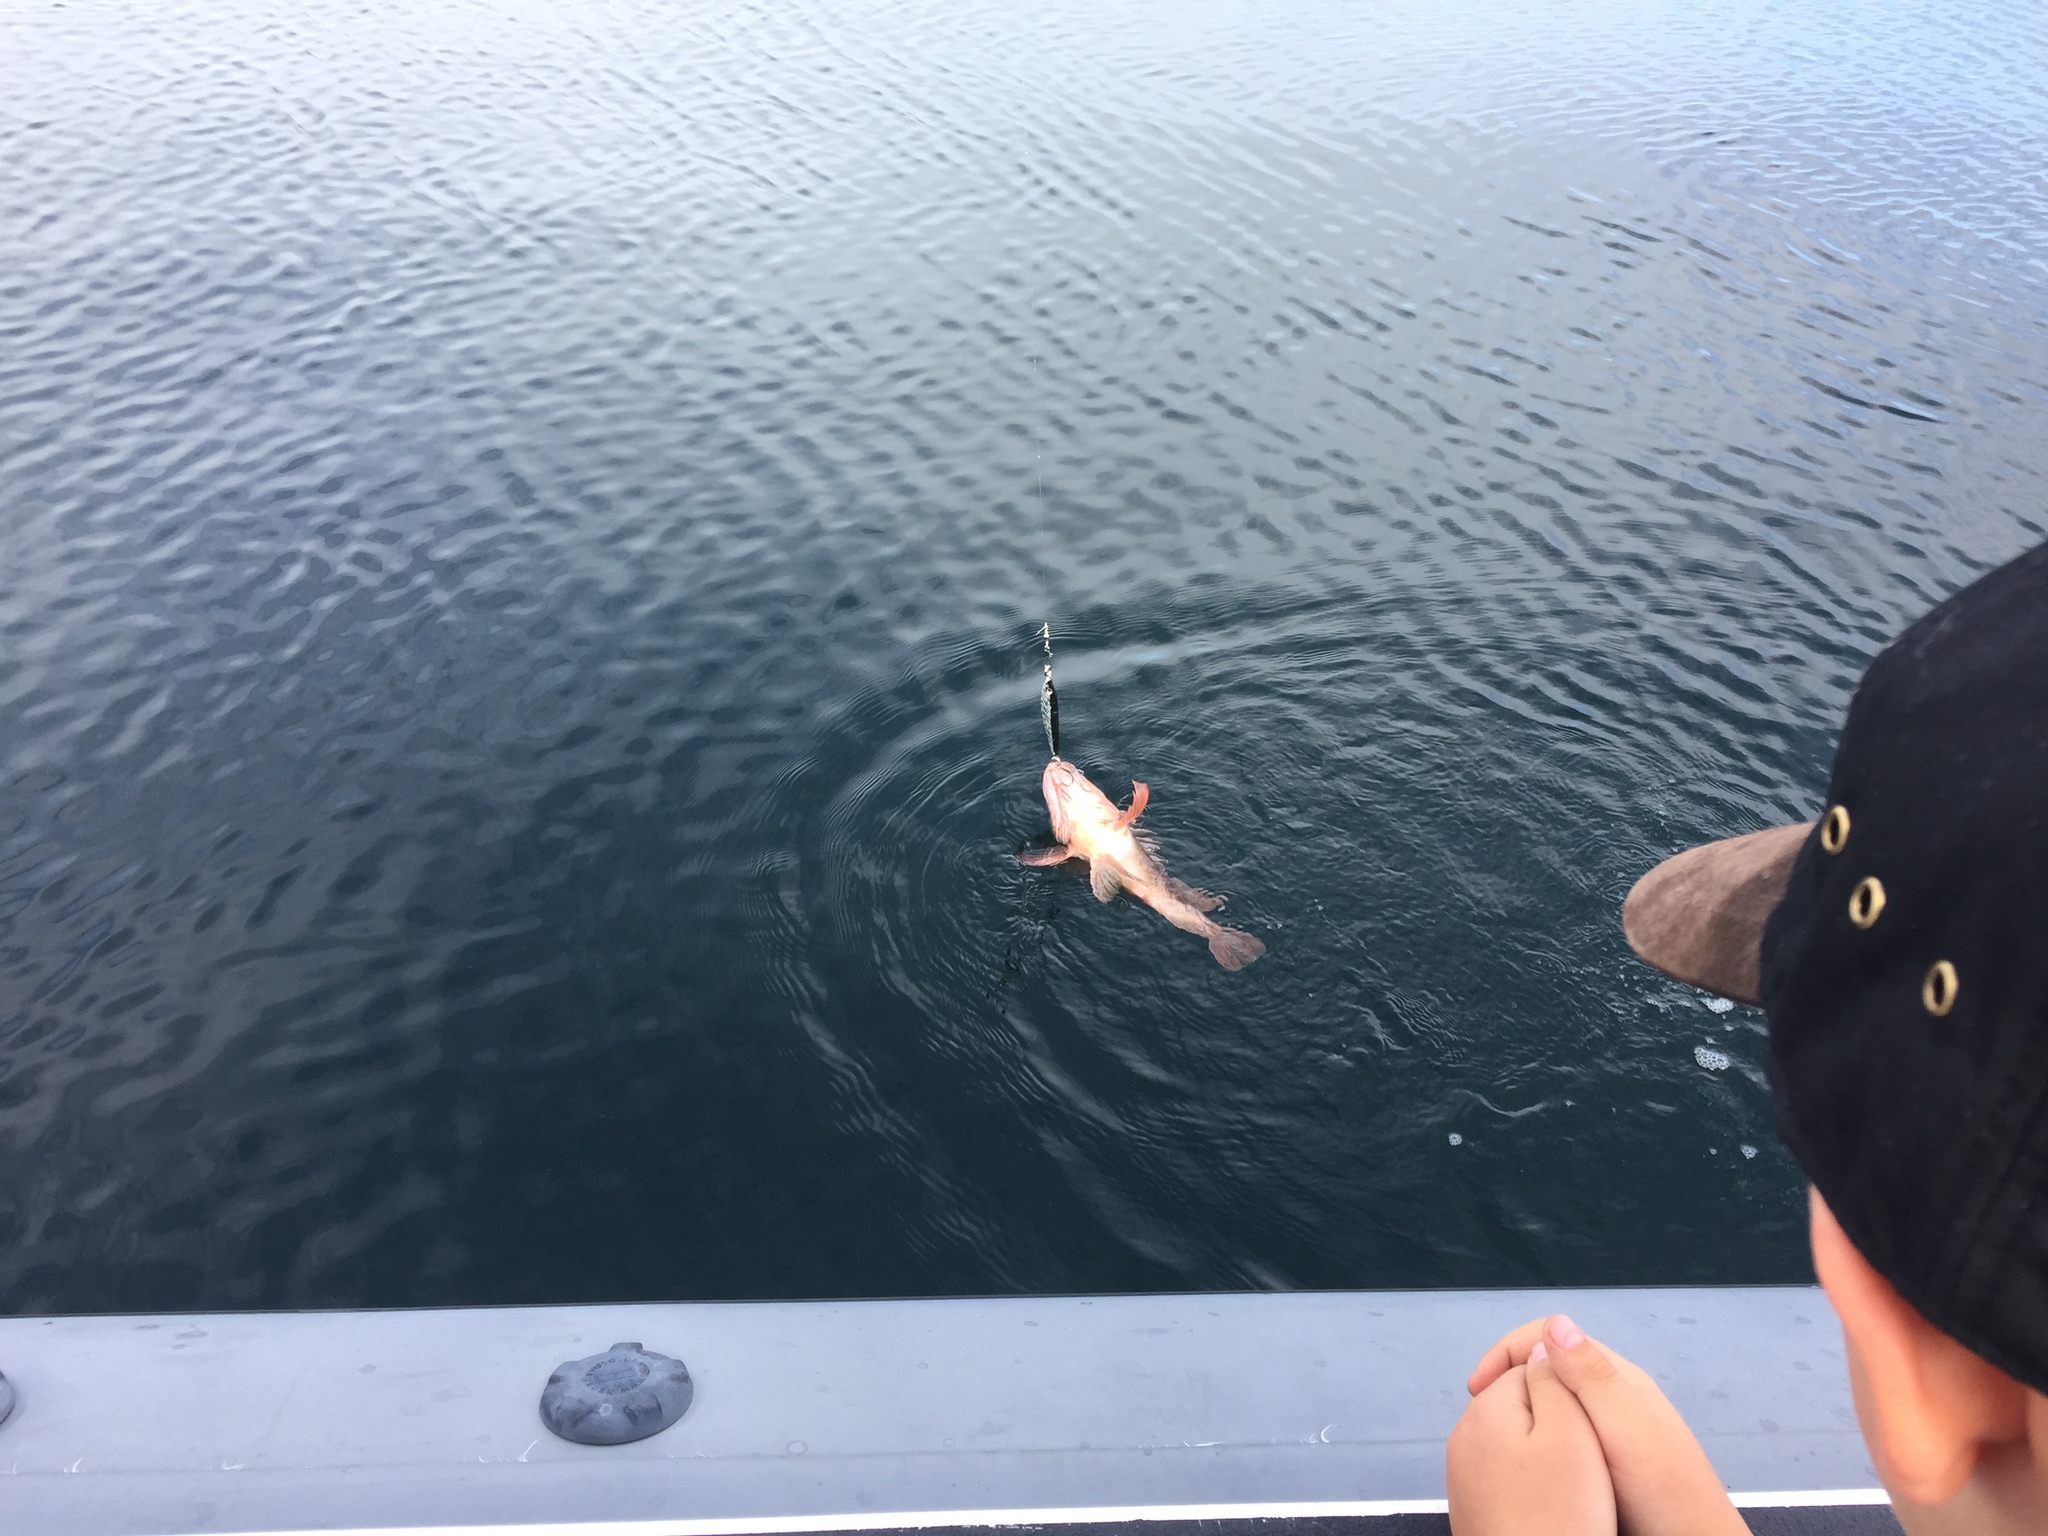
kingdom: Animalia
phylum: Chordata
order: Scorpaeniformes
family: Sebastidae
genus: Sebastes
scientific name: Sebastes caurinus
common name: Copper rockfish
